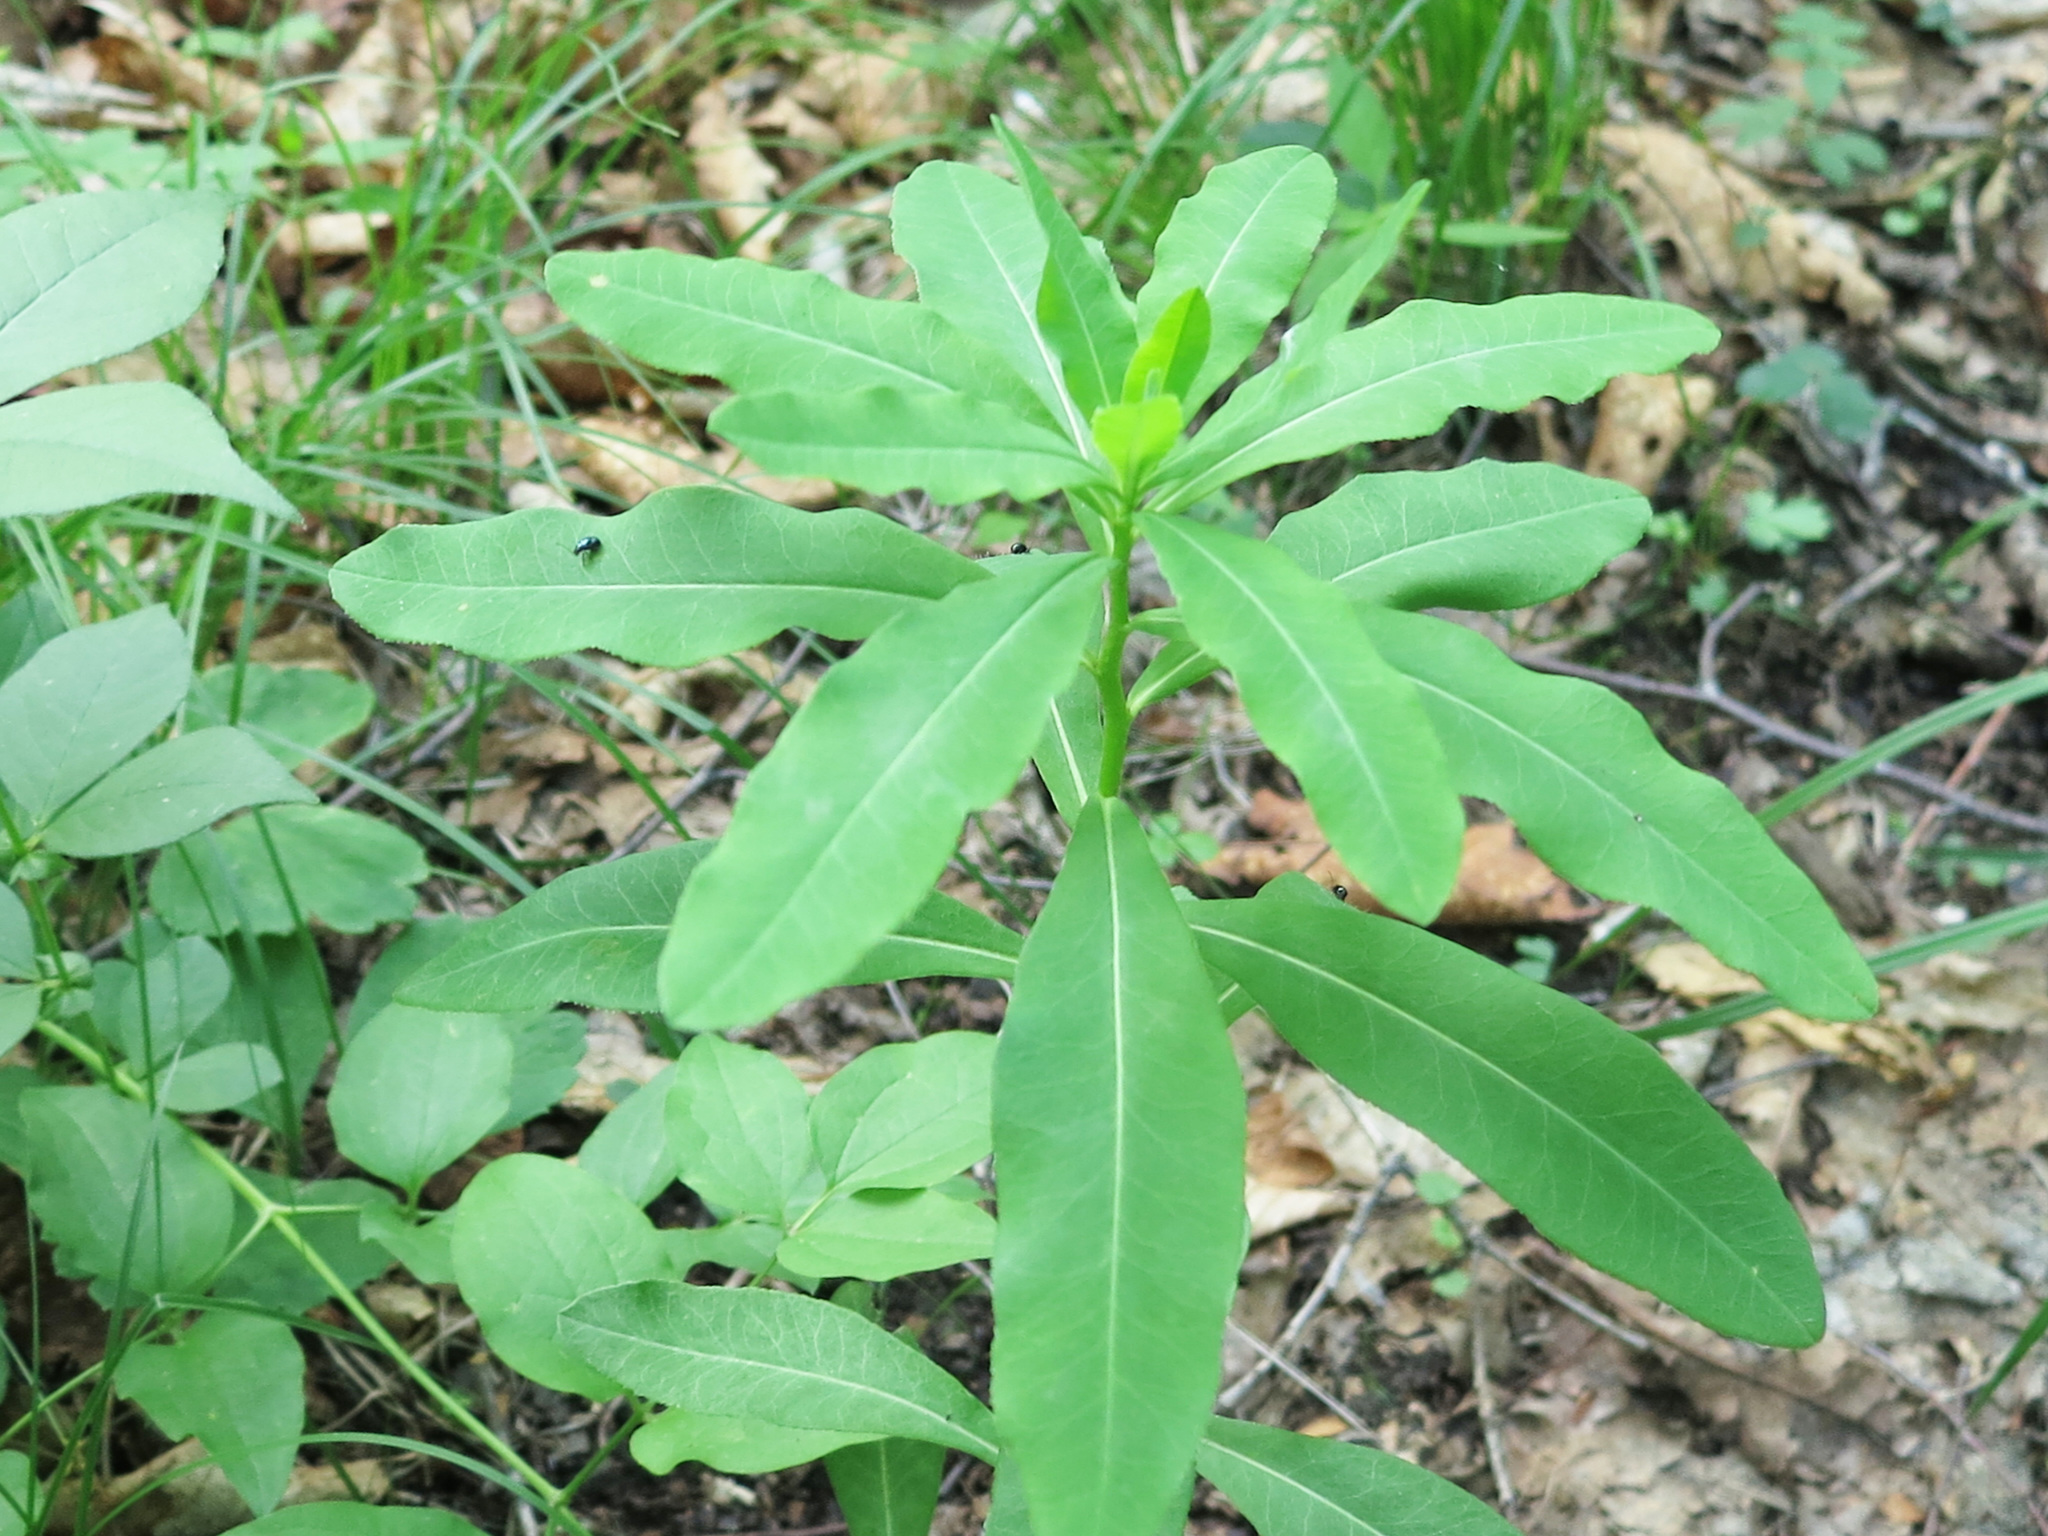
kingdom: Plantae
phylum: Tracheophyta
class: Magnoliopsida
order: Malpighiales
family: Euphorbiaceae
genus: Euphorbia
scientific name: Euphorbia lucorum
